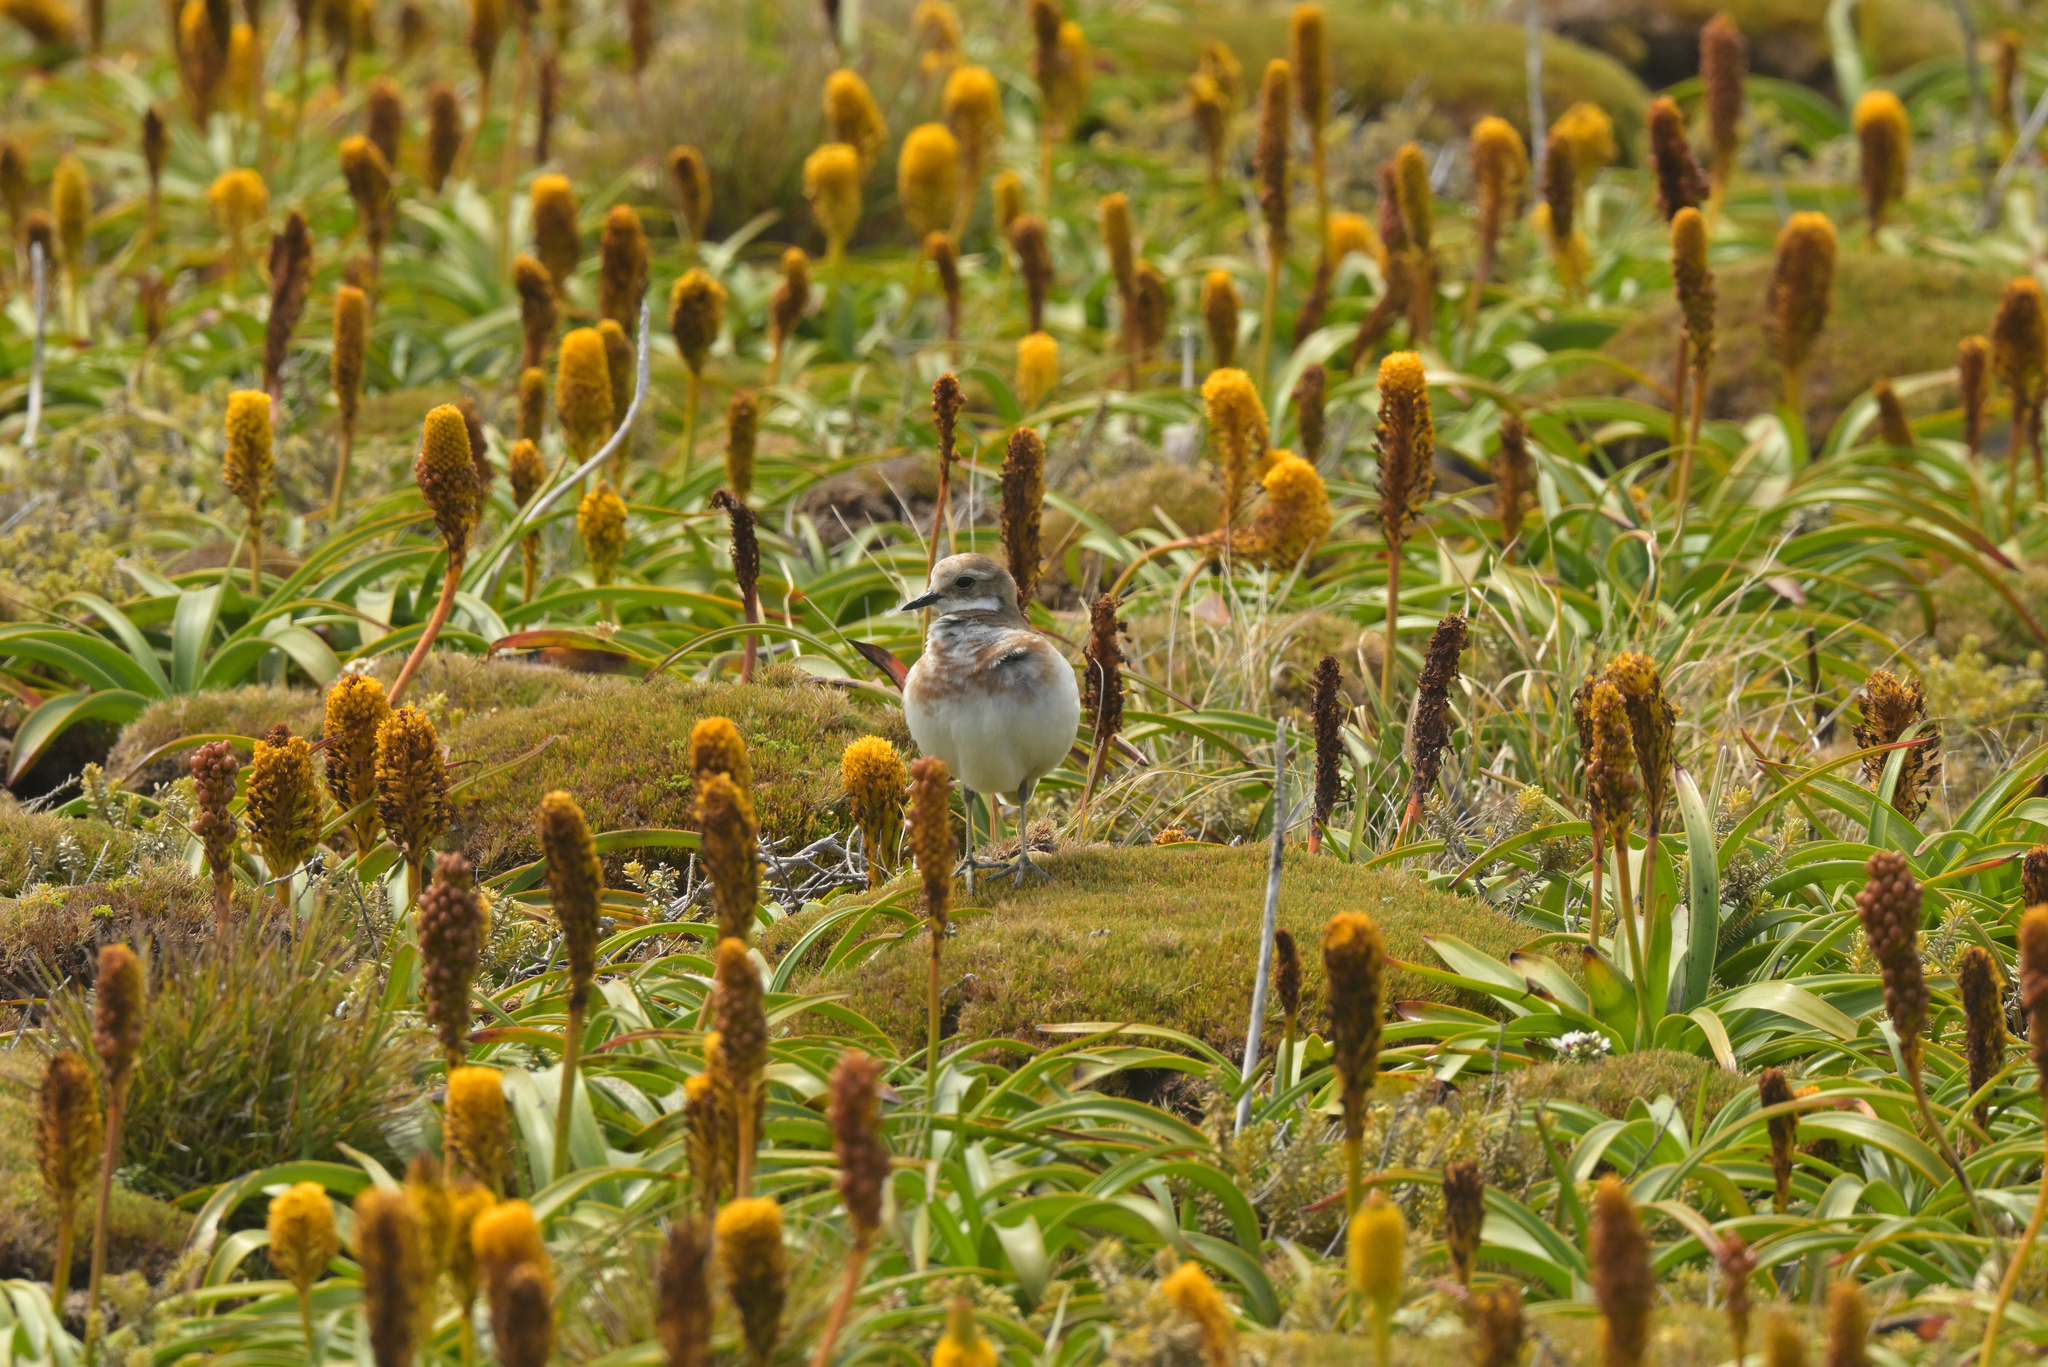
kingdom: Animalia
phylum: Chordata
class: Aves
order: Charadriiformes
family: Charadriidae
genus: Anarhynchus
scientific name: Anarhynchus
